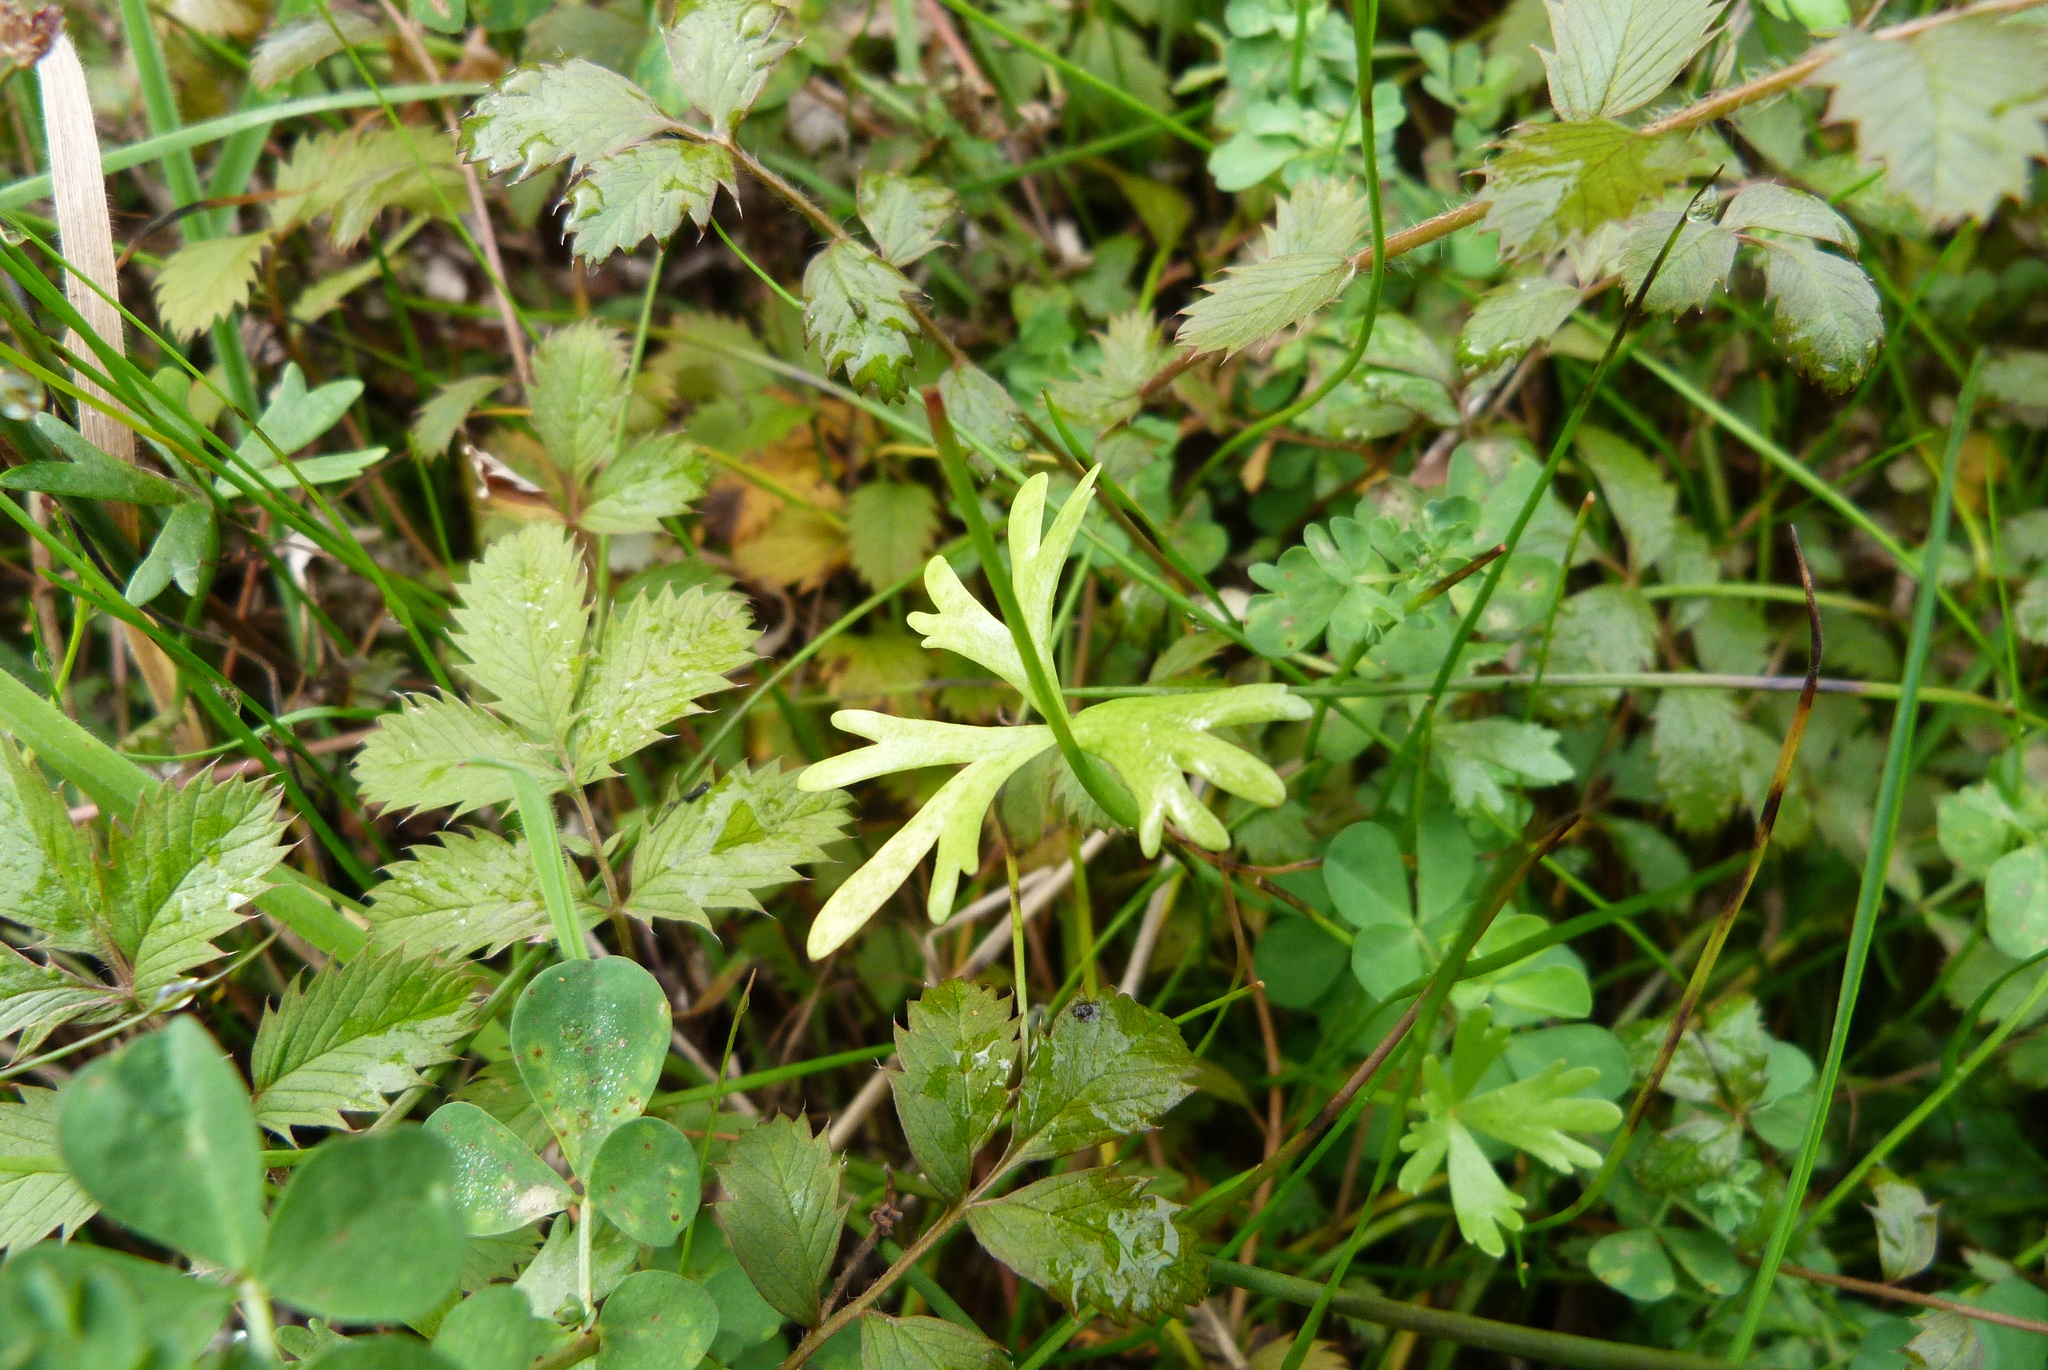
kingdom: Plantae
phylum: Tracheophyta
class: Magnoliopsida
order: Ranunculales
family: Ranunculaceae
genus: Ranunculus
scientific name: Ranunculus glabrifolius
